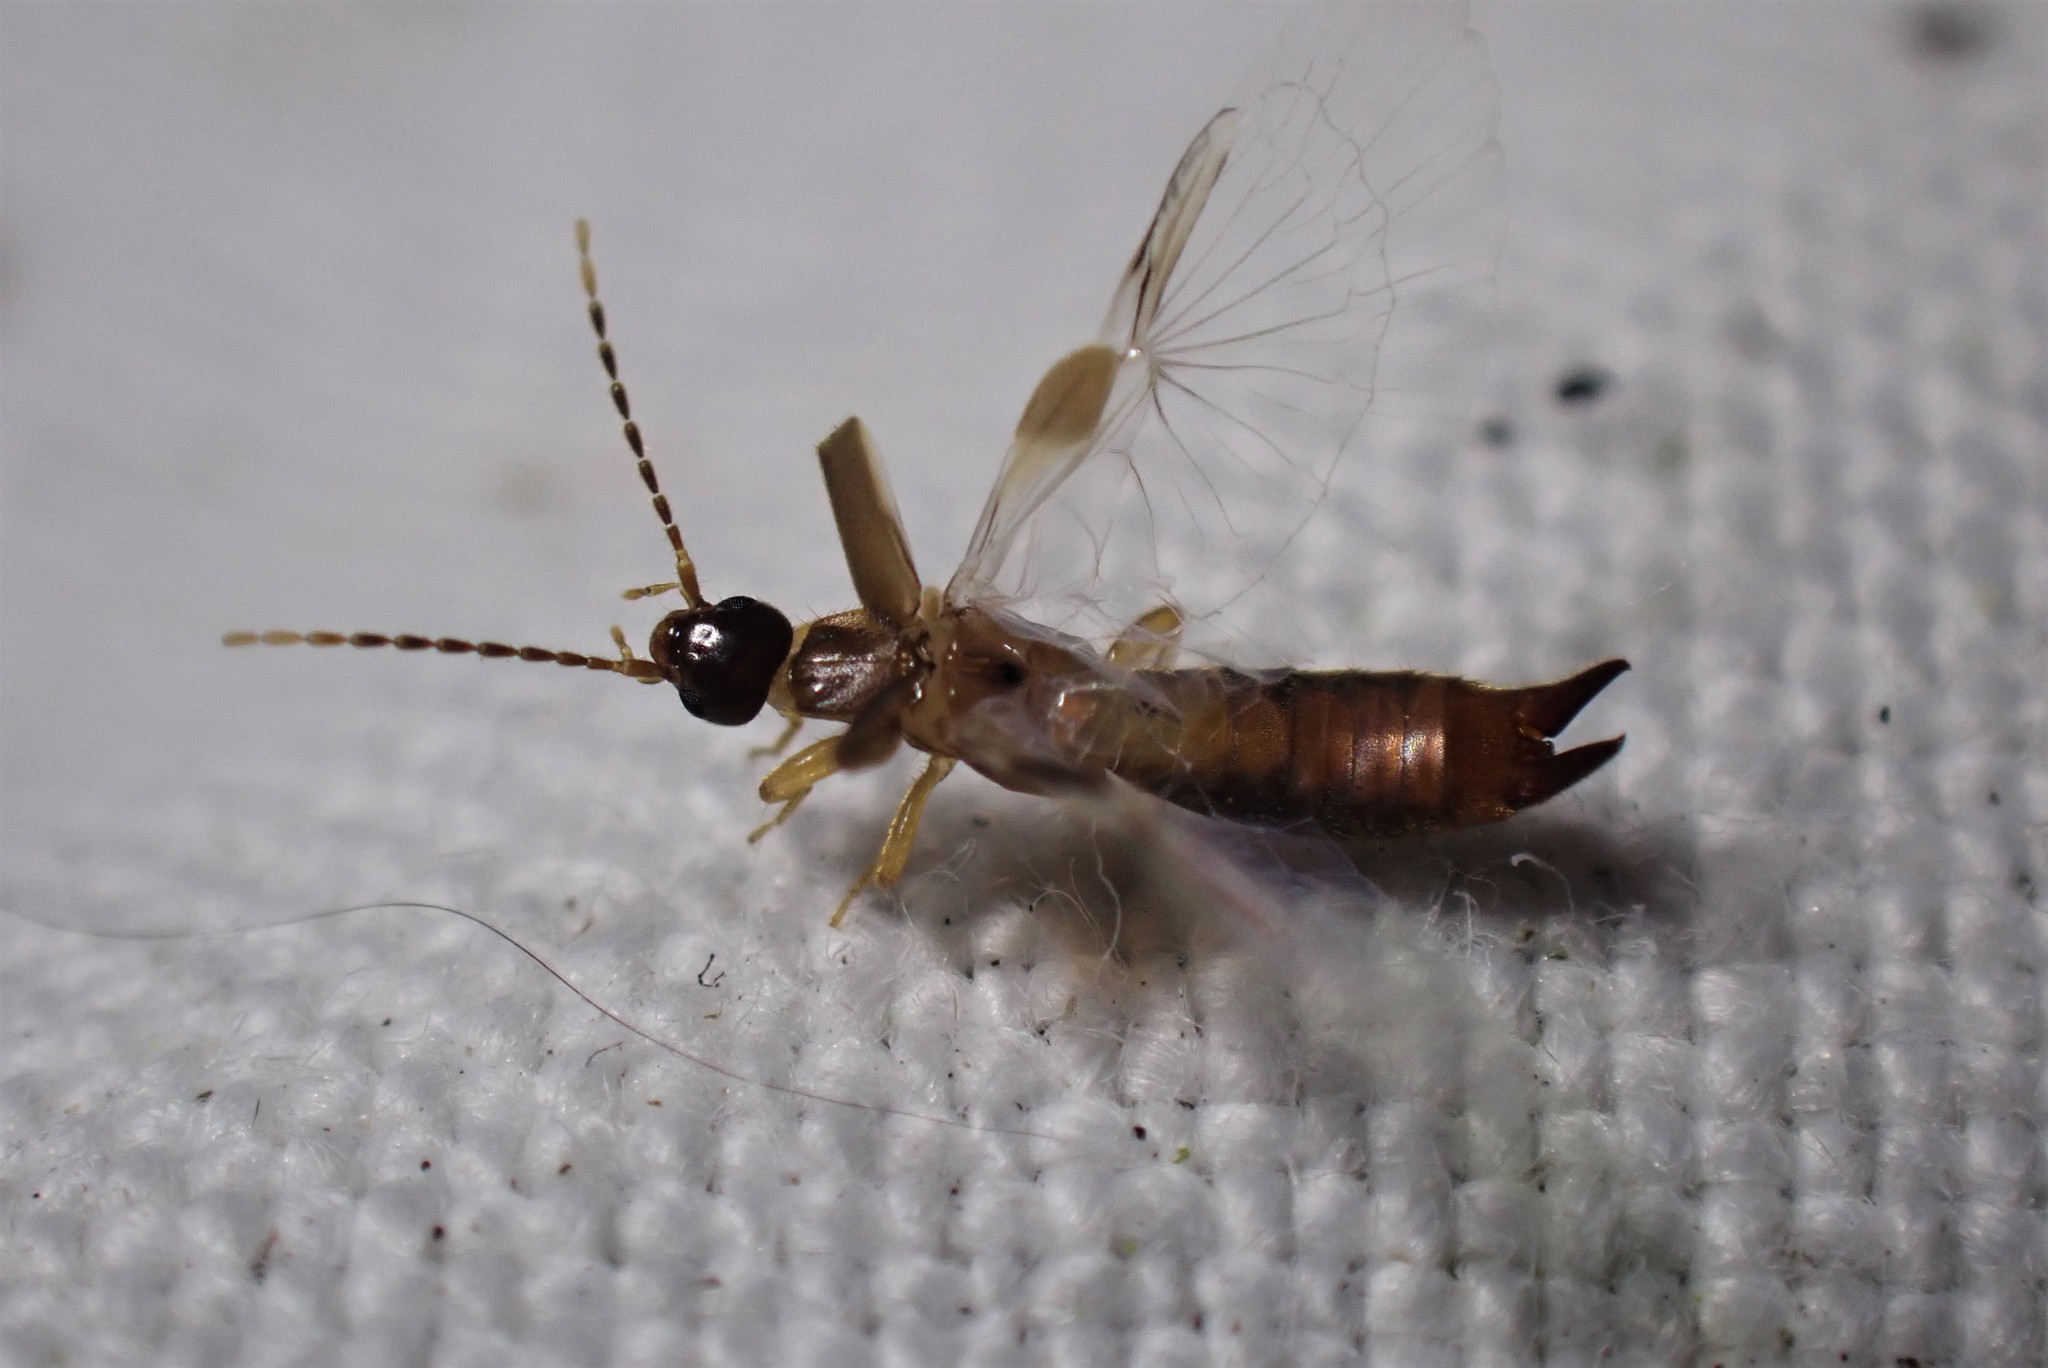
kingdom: Animalia
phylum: Arthropoda
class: Insecta
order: Dermaptera
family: Spongiphoridae
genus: Labia
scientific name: Labia minor
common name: Lesser earwig
